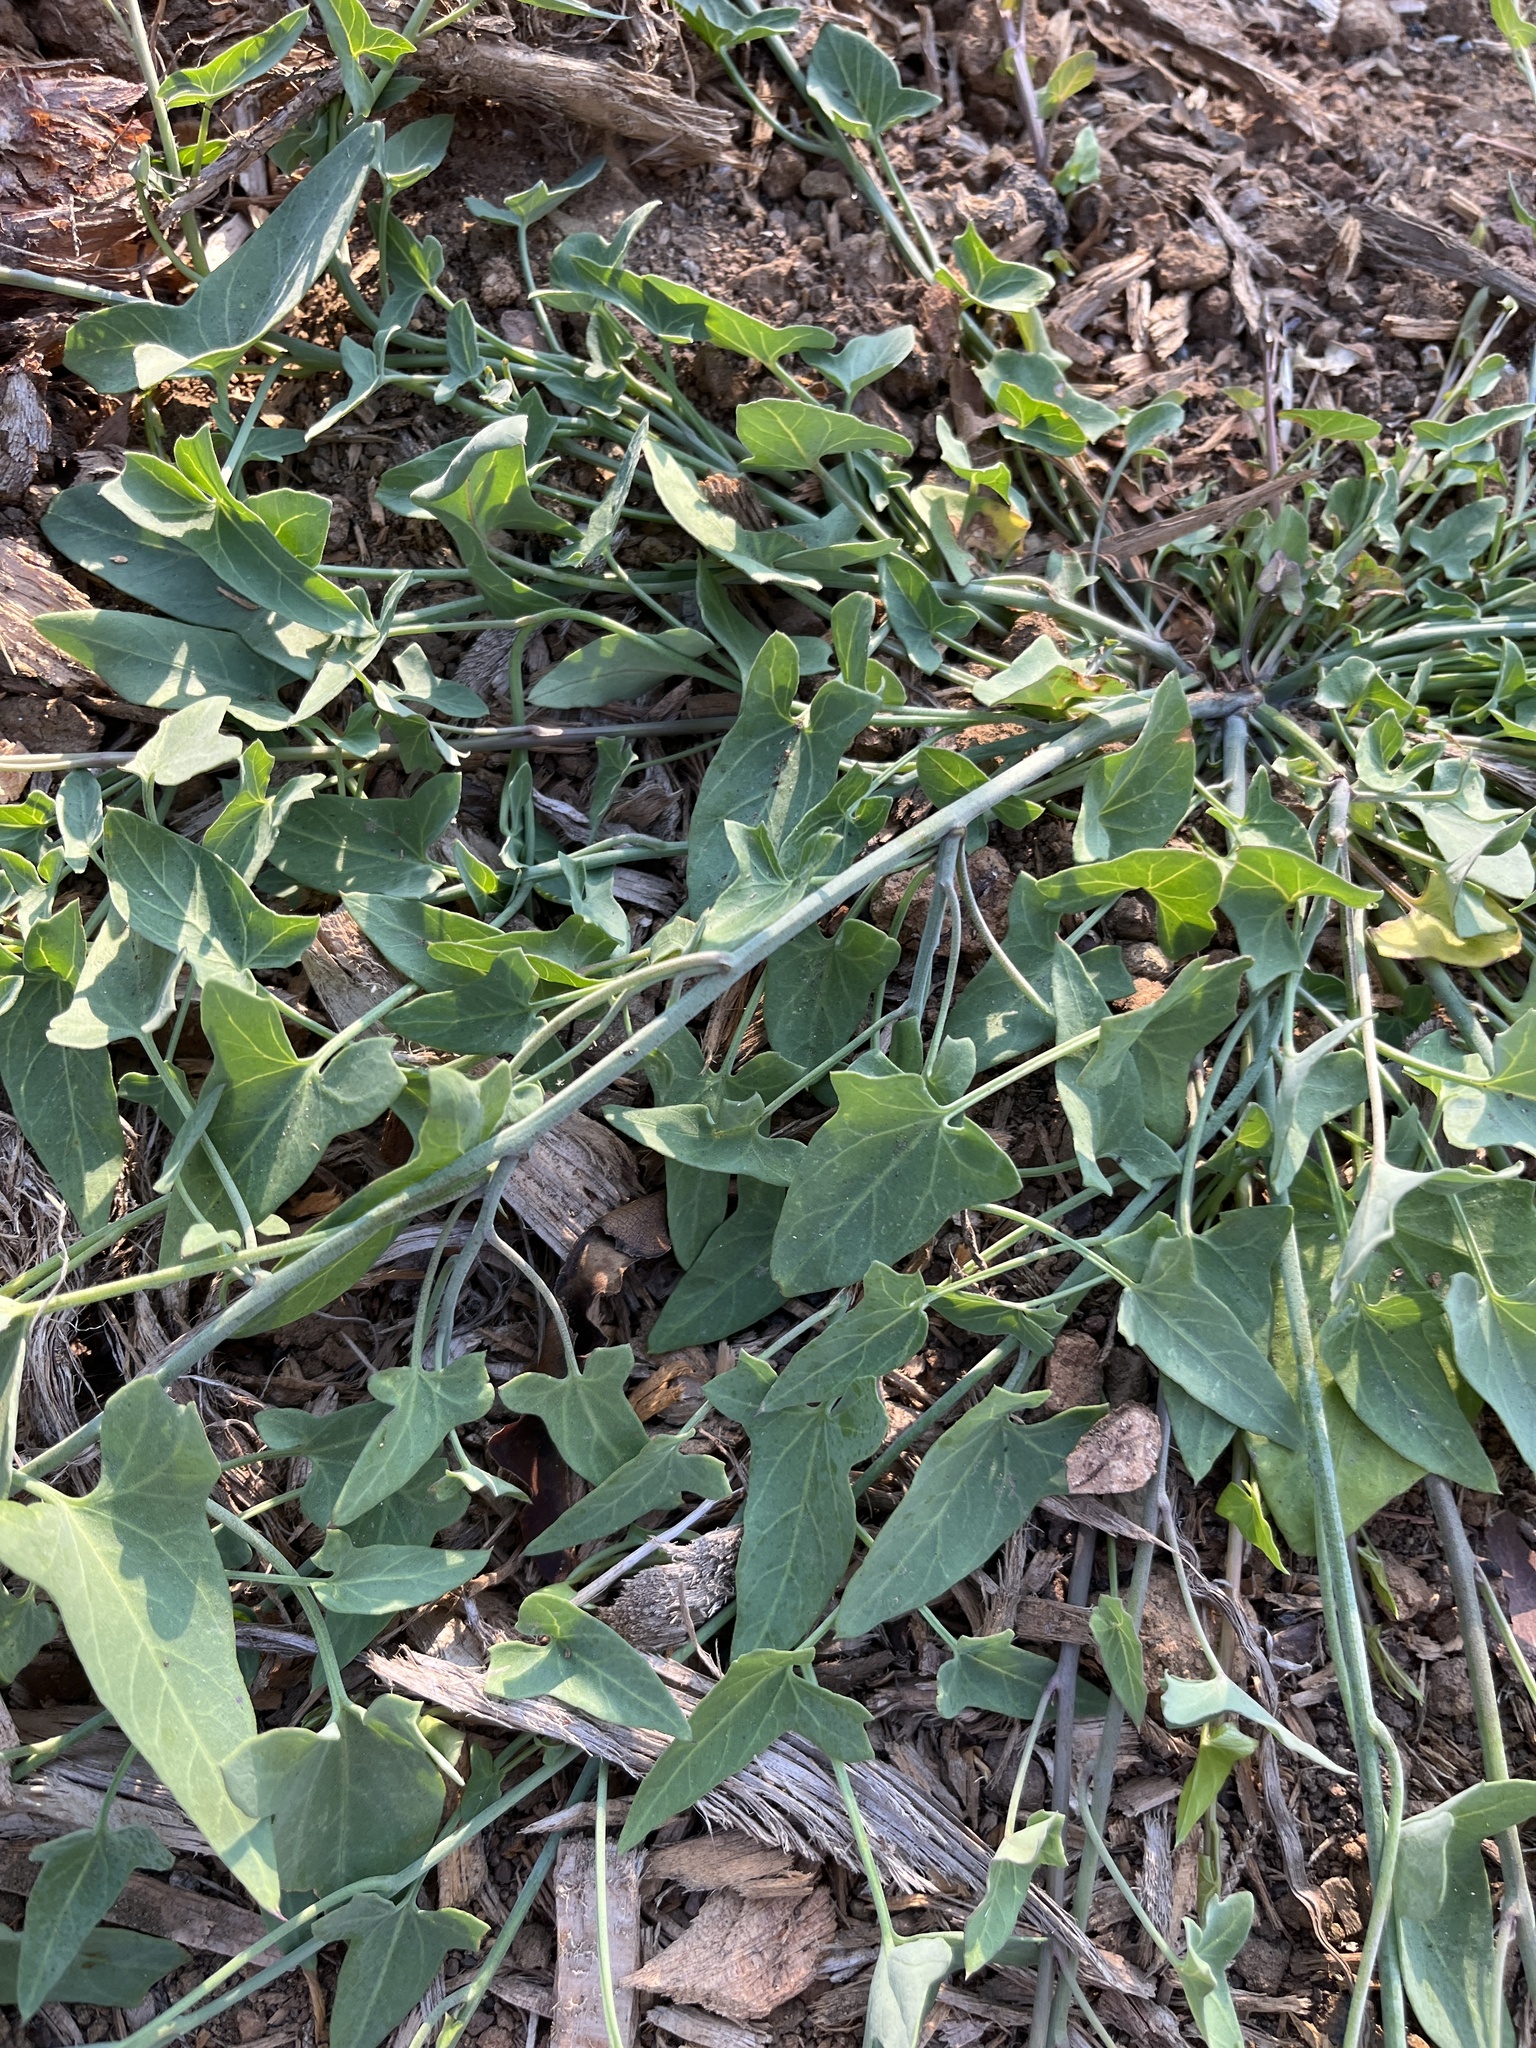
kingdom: Plantae
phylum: Tracheophyta
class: Magnoliopsida
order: Solanales
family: Convolvulaceae
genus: Calystegia
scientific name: Calystegia purpurata
